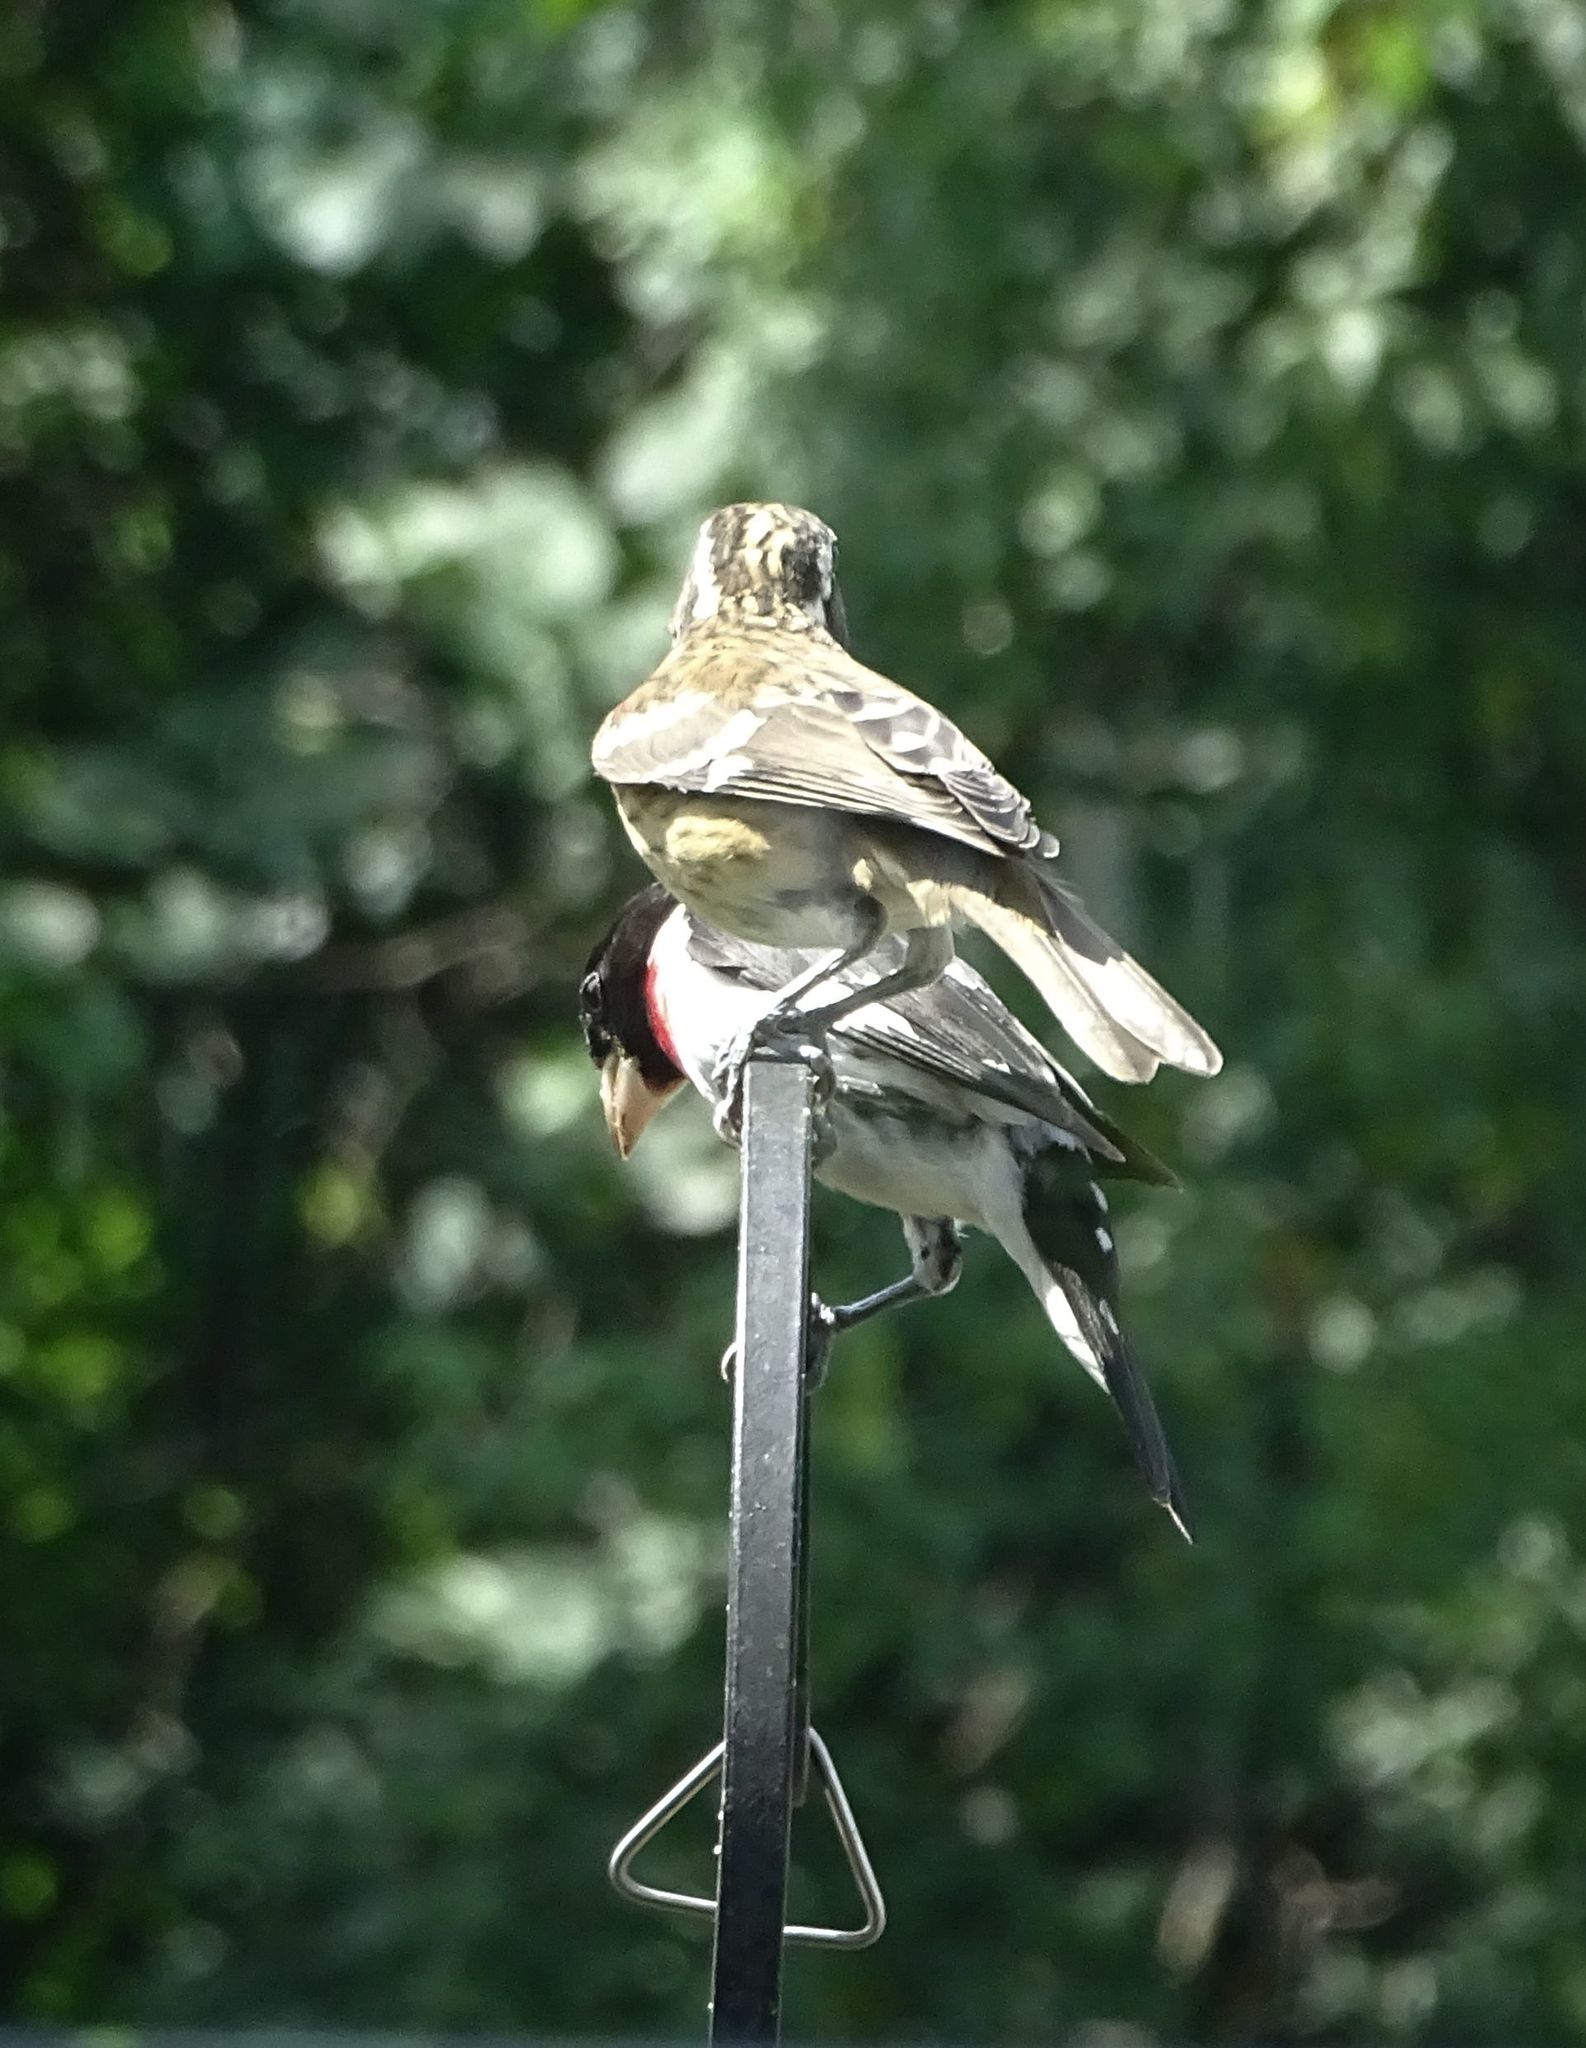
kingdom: Animalia
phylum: Chordata
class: Aves
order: Passeriformes
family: Cardinalidae
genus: Pheucticus
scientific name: Pheucticus ludovicianus
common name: Rose-breasted grosbeak
